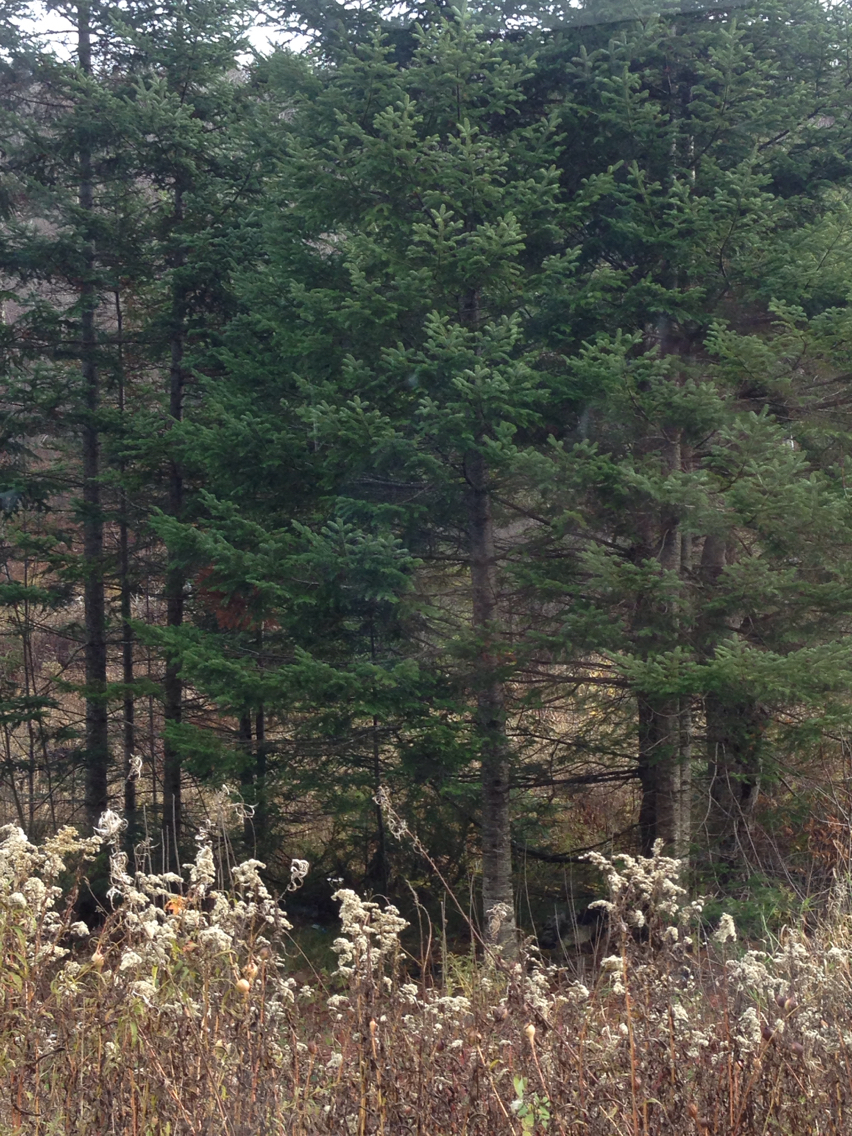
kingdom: Plantae
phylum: Tracheophyta
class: Pinopsida
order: Pinales
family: Pinaceae
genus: Abies
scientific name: Abies balsamea
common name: Balsam fir
